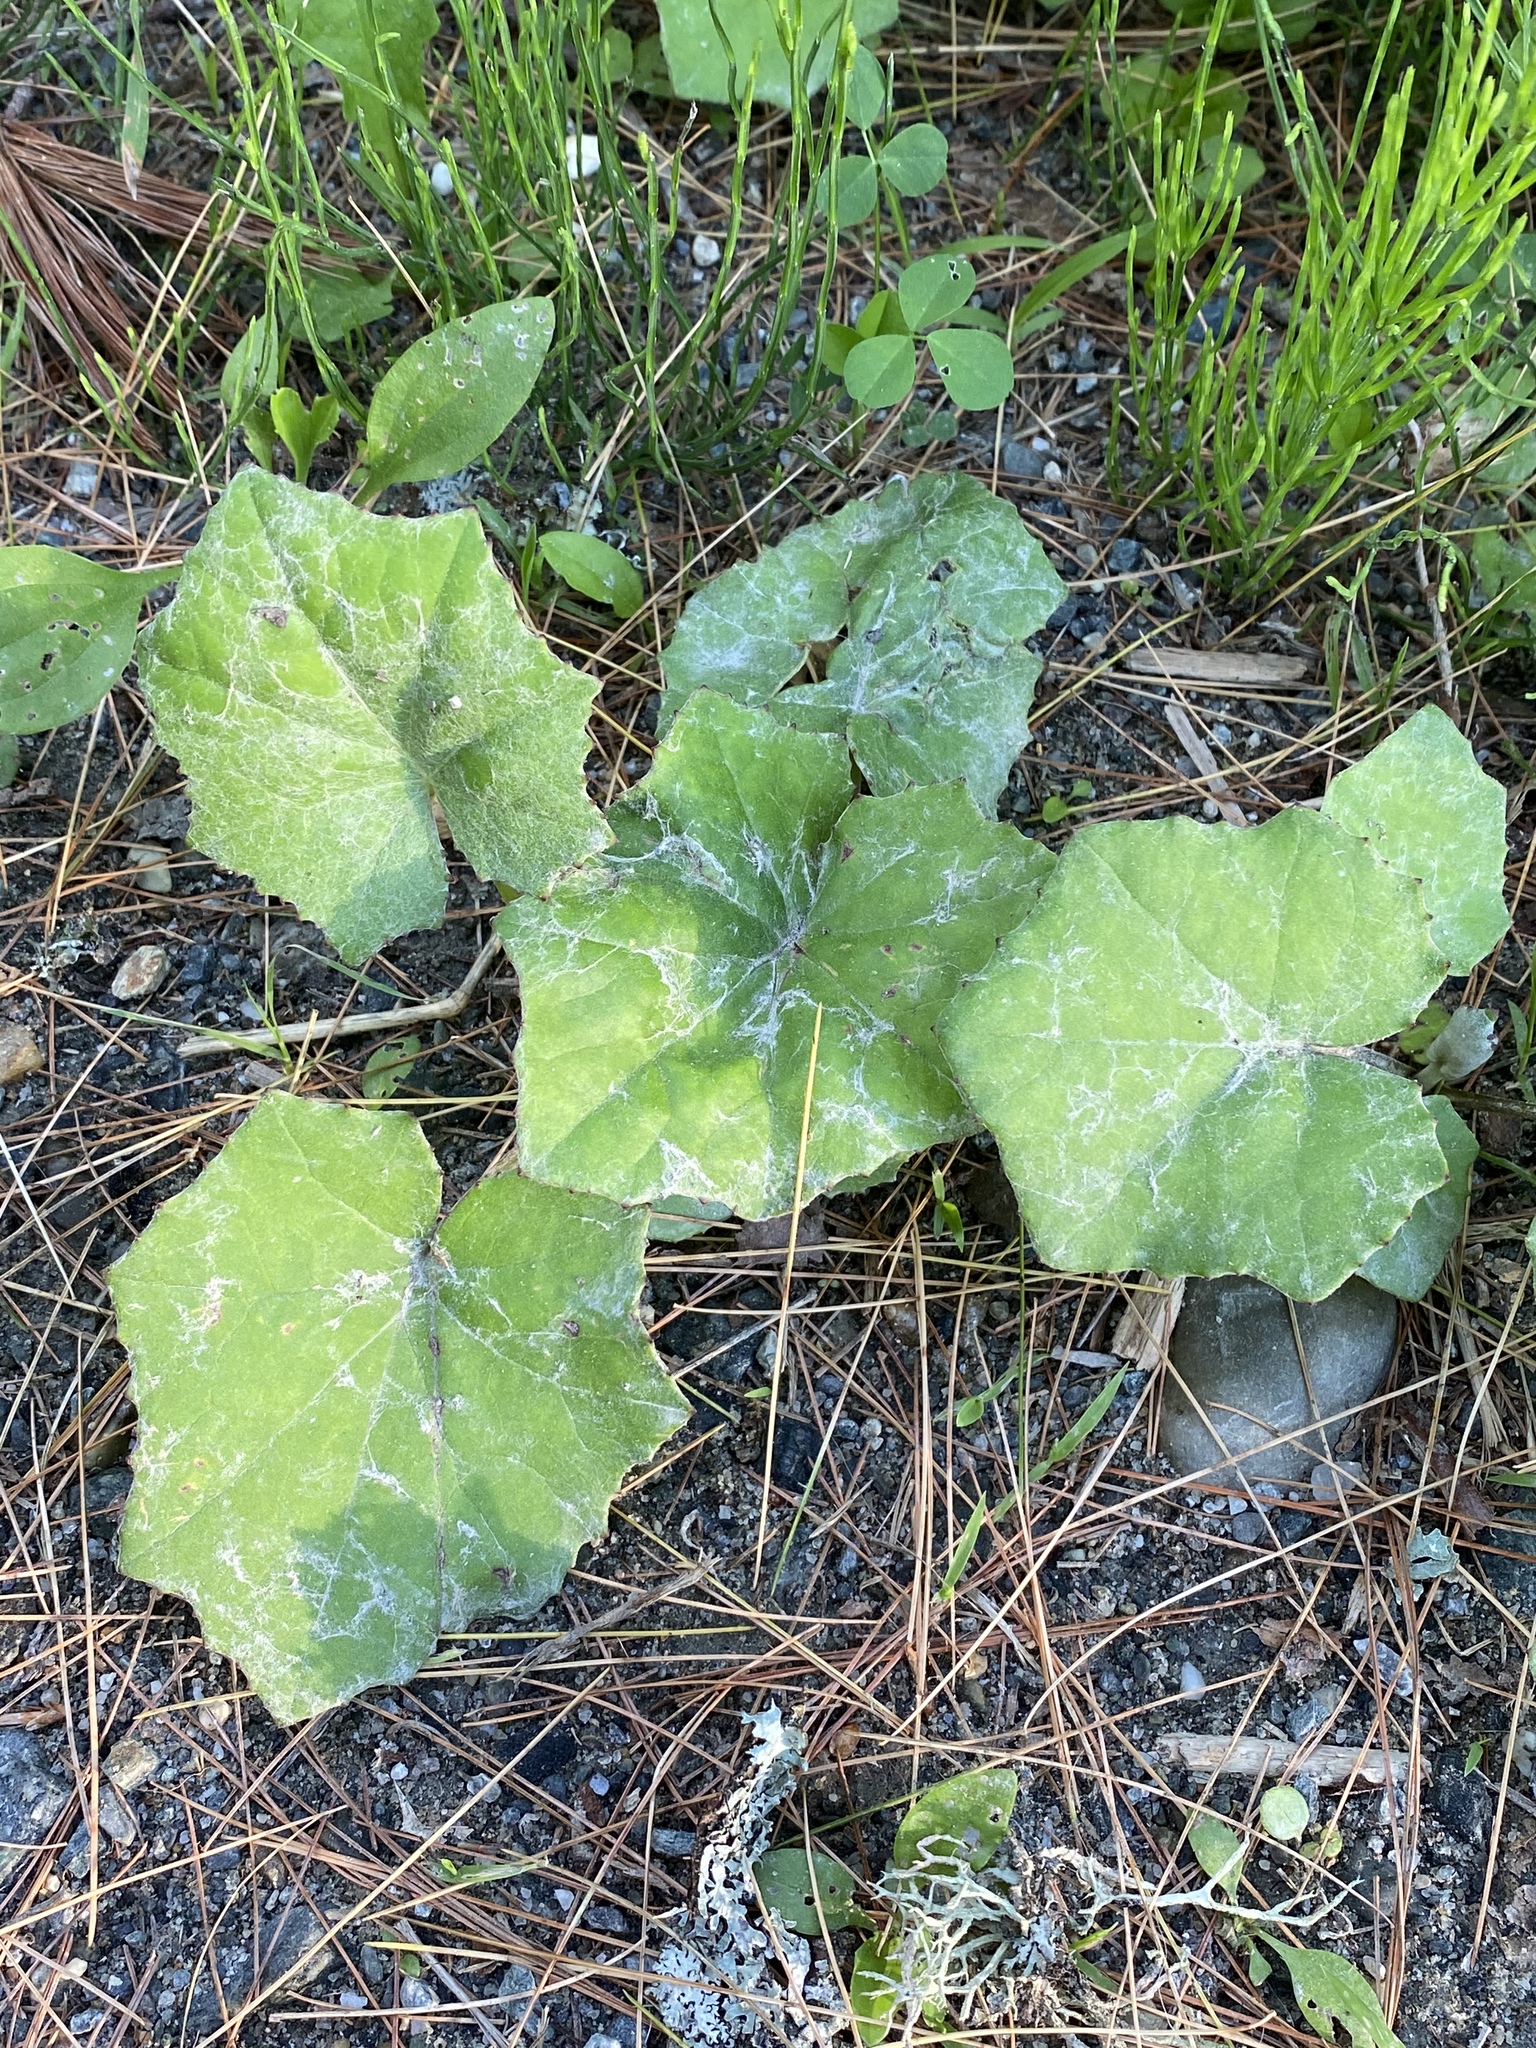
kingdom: Plantae
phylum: Tracheophyta
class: Magnoliopsida
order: Asterales
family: Asteraceae
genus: Tussilago
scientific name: Tussilago farfara
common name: Coltsfoot
